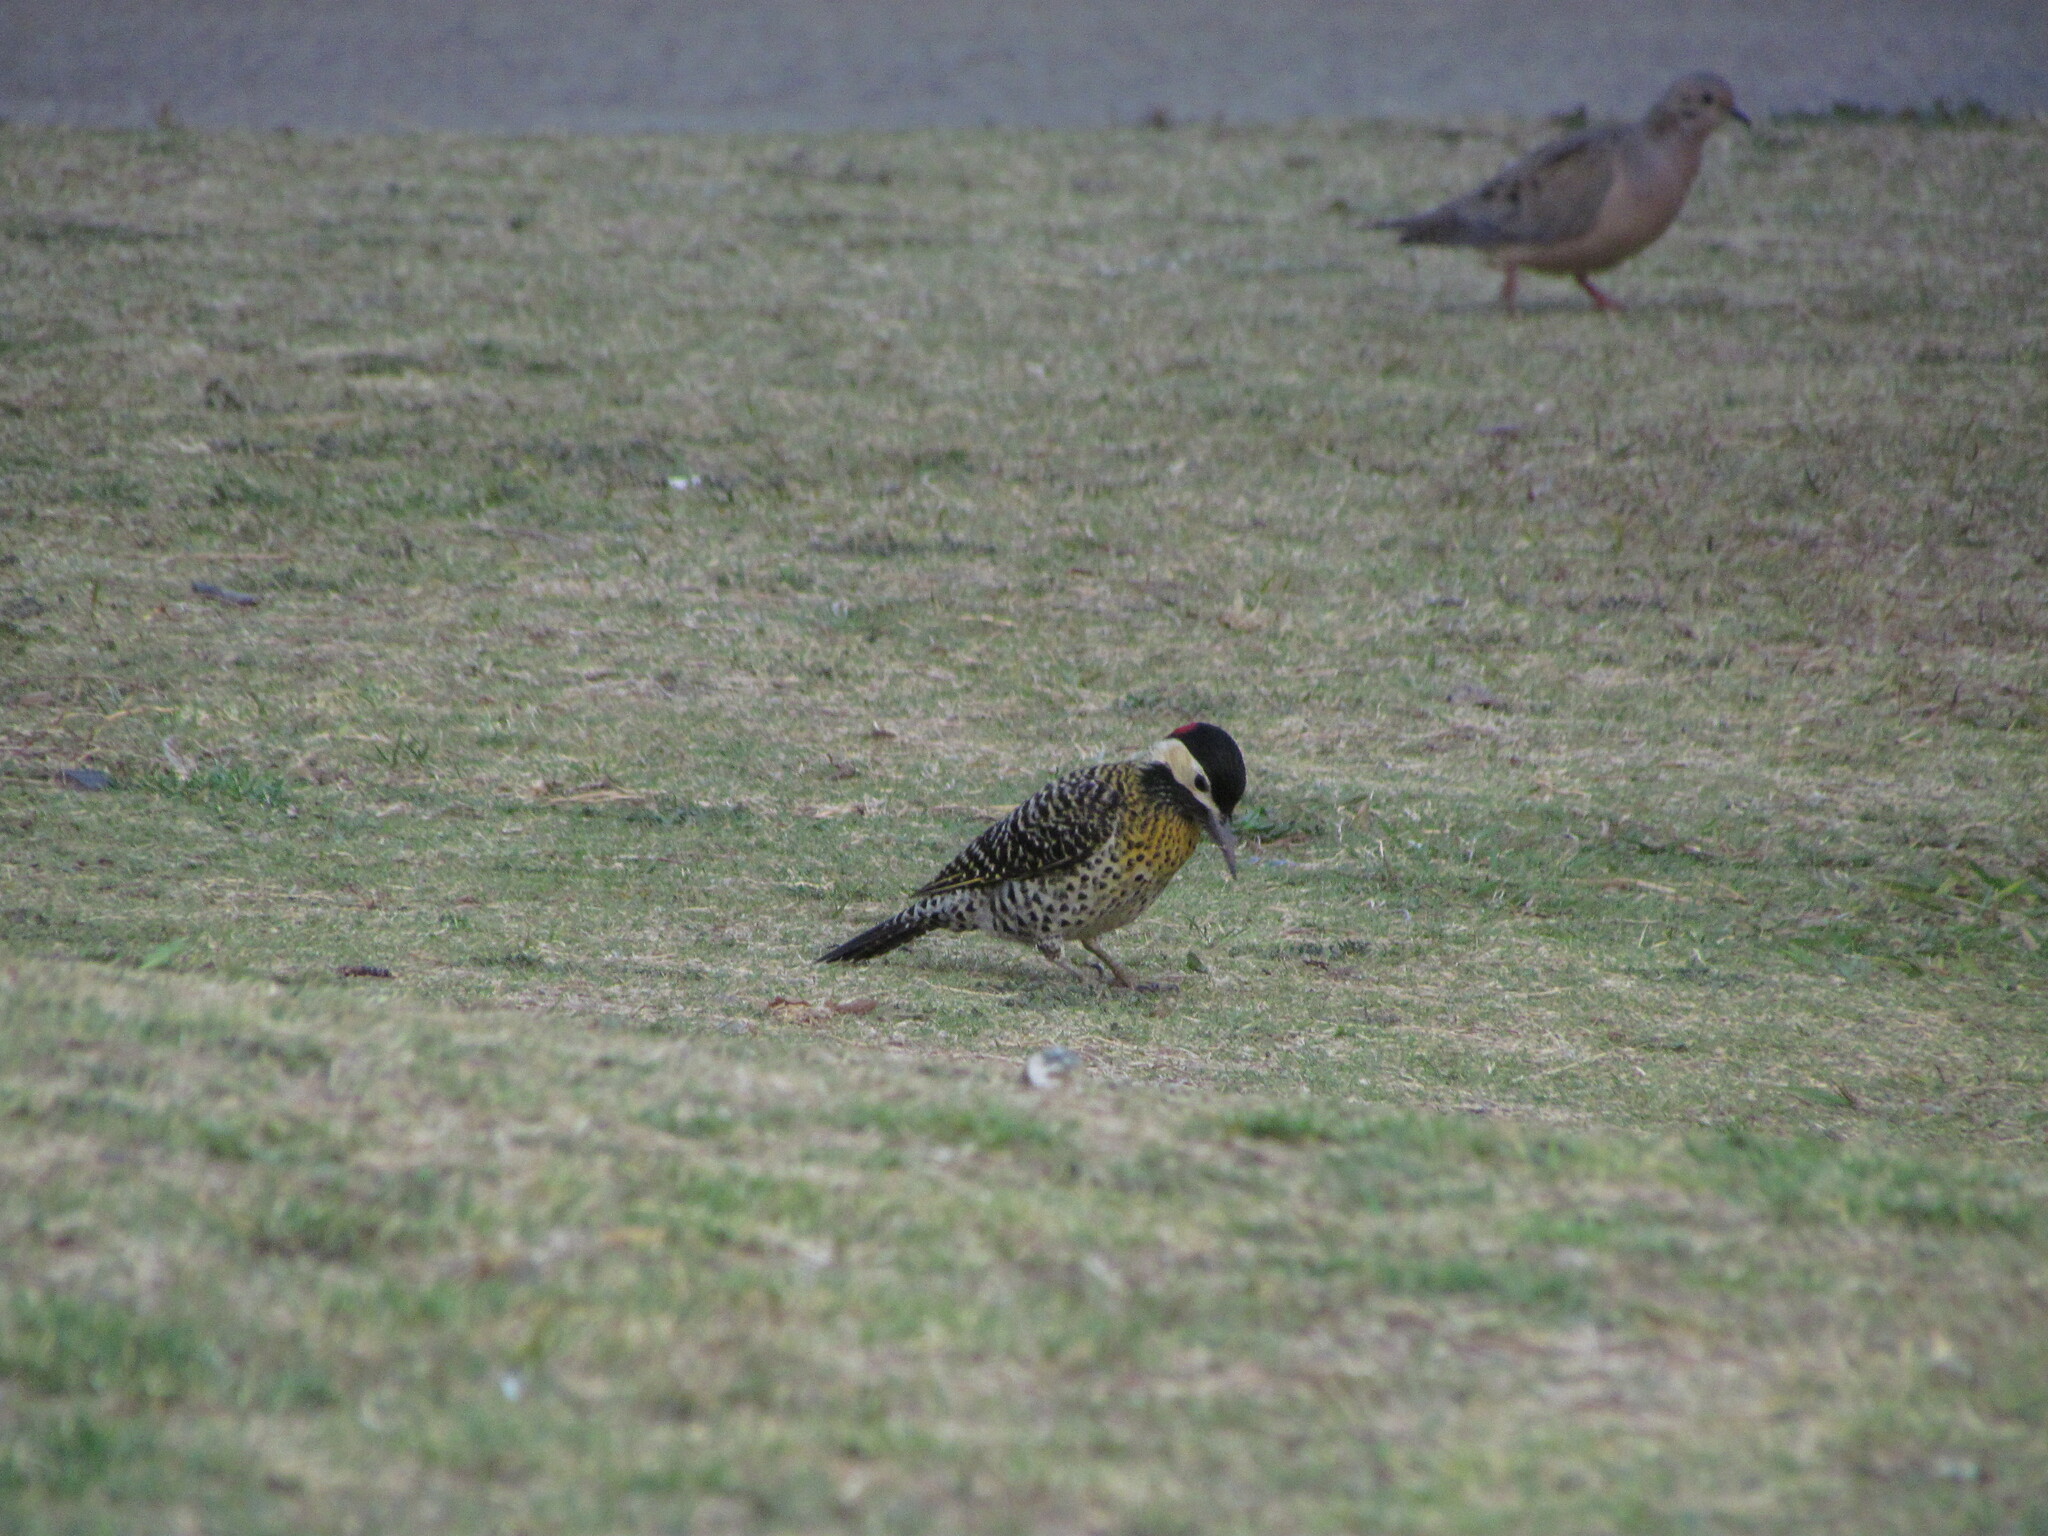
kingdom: Animalia
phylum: Chordata
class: Aves
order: Piciformes
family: Picidae
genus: Colaptes
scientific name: Colaptes melanochloros
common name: Green-barred woodpecker
